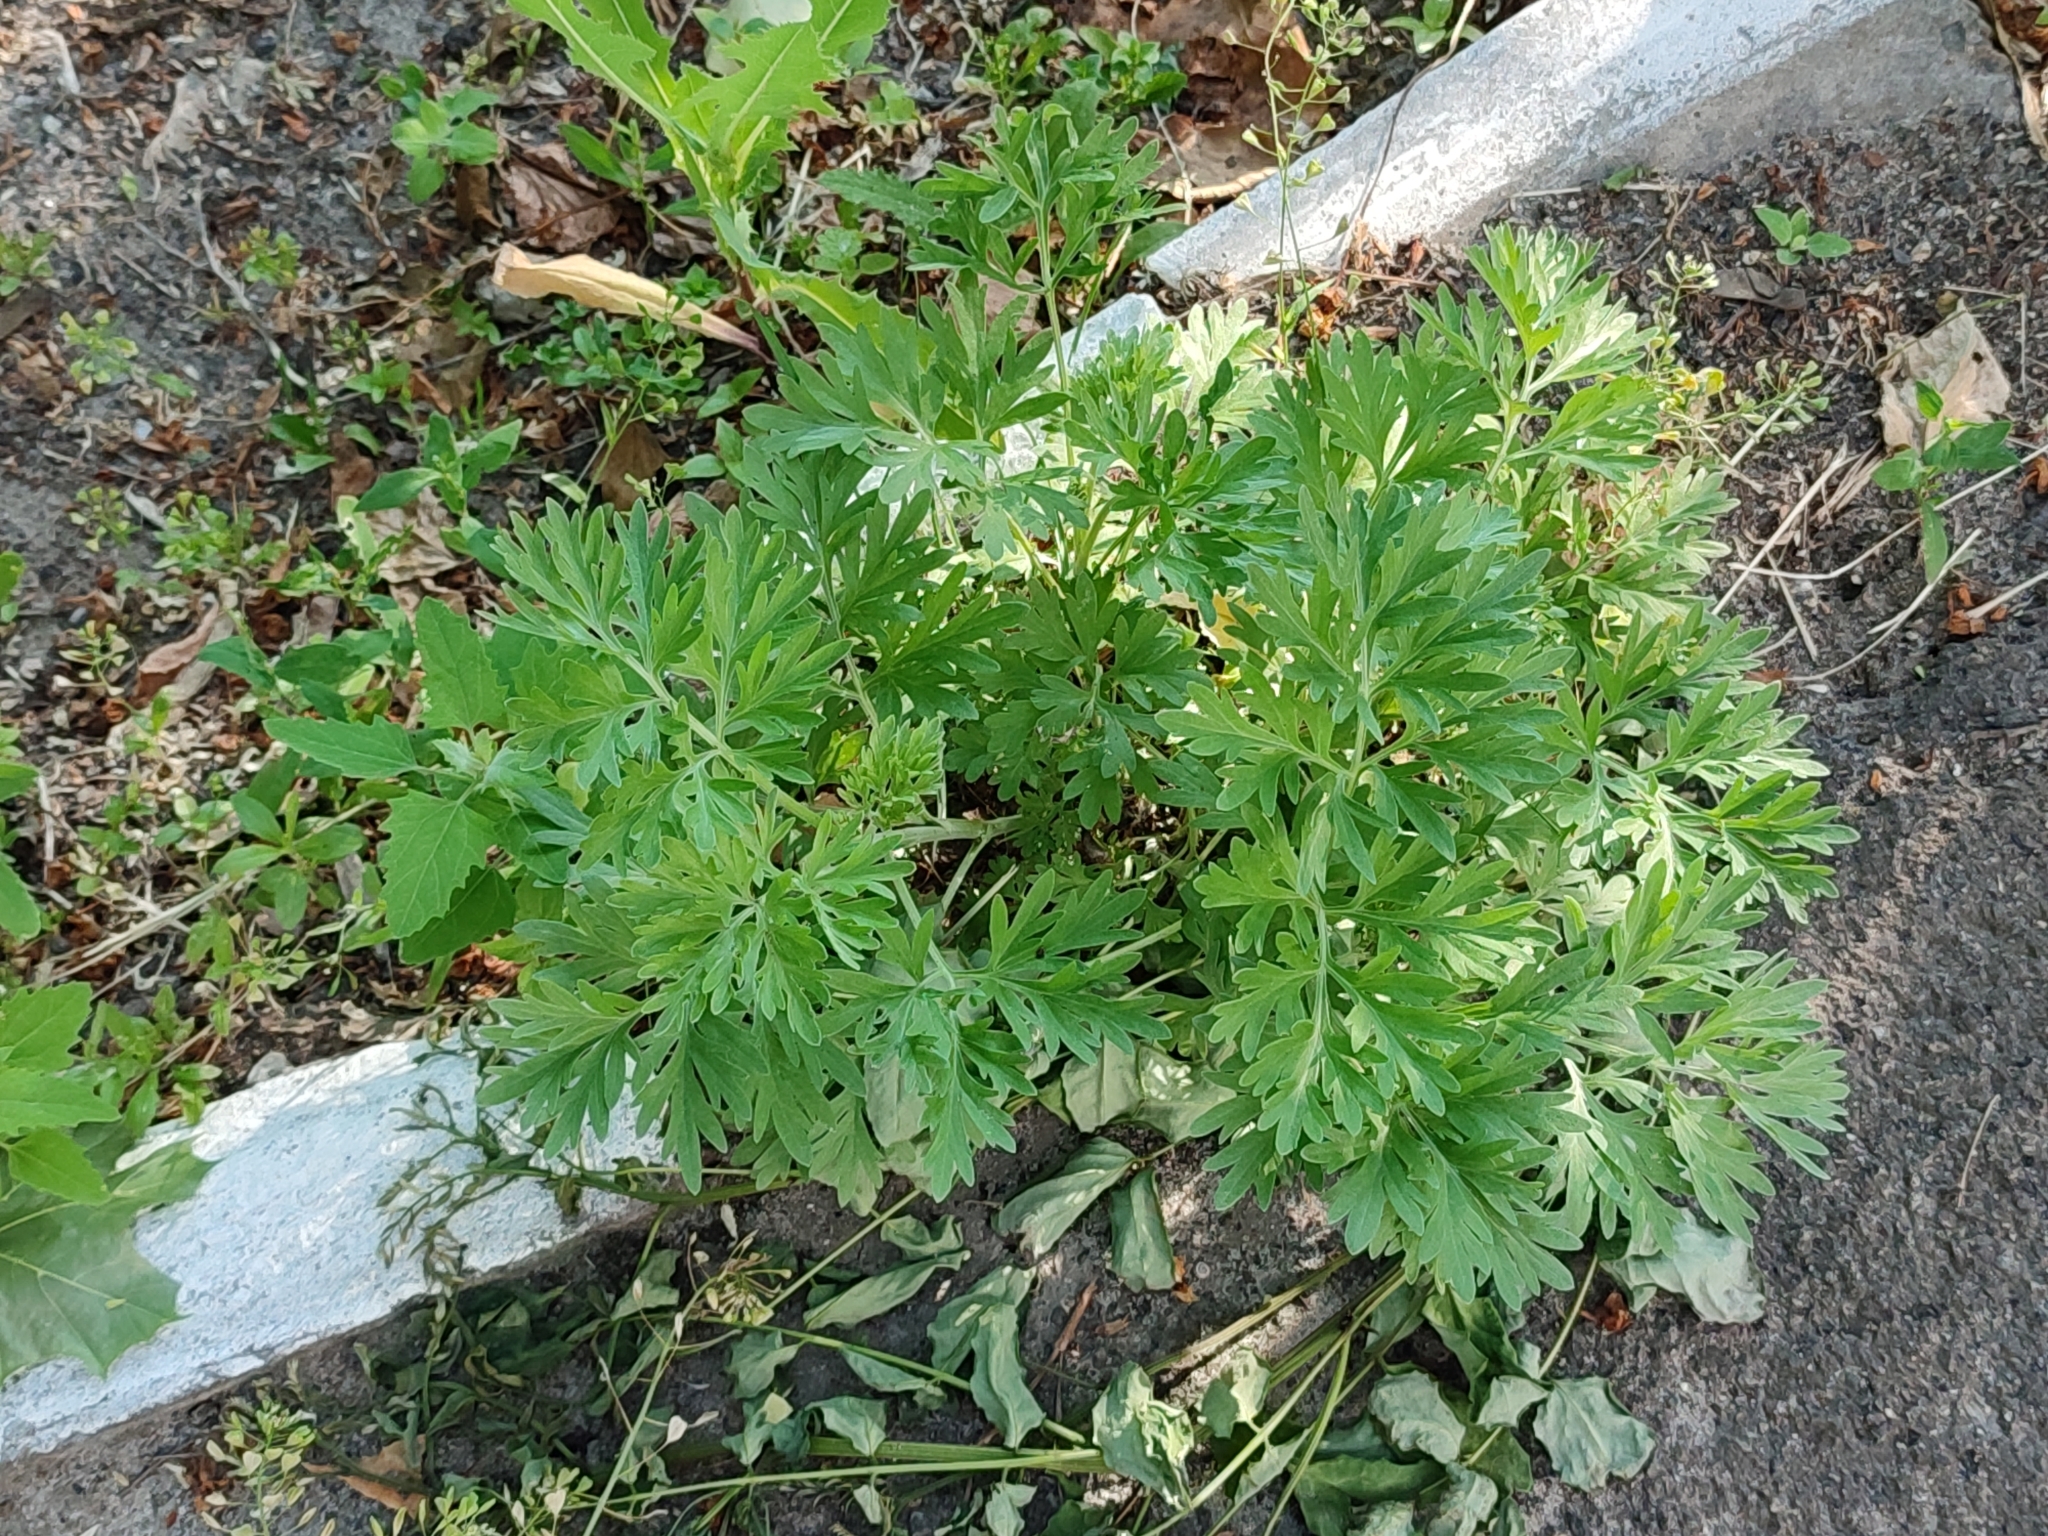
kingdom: Plantae
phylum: Tracheophyta
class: Magnoliopsida
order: Asterales
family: Asteraceae
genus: Artemisia
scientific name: Artemisia absinthium
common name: Wormwood
